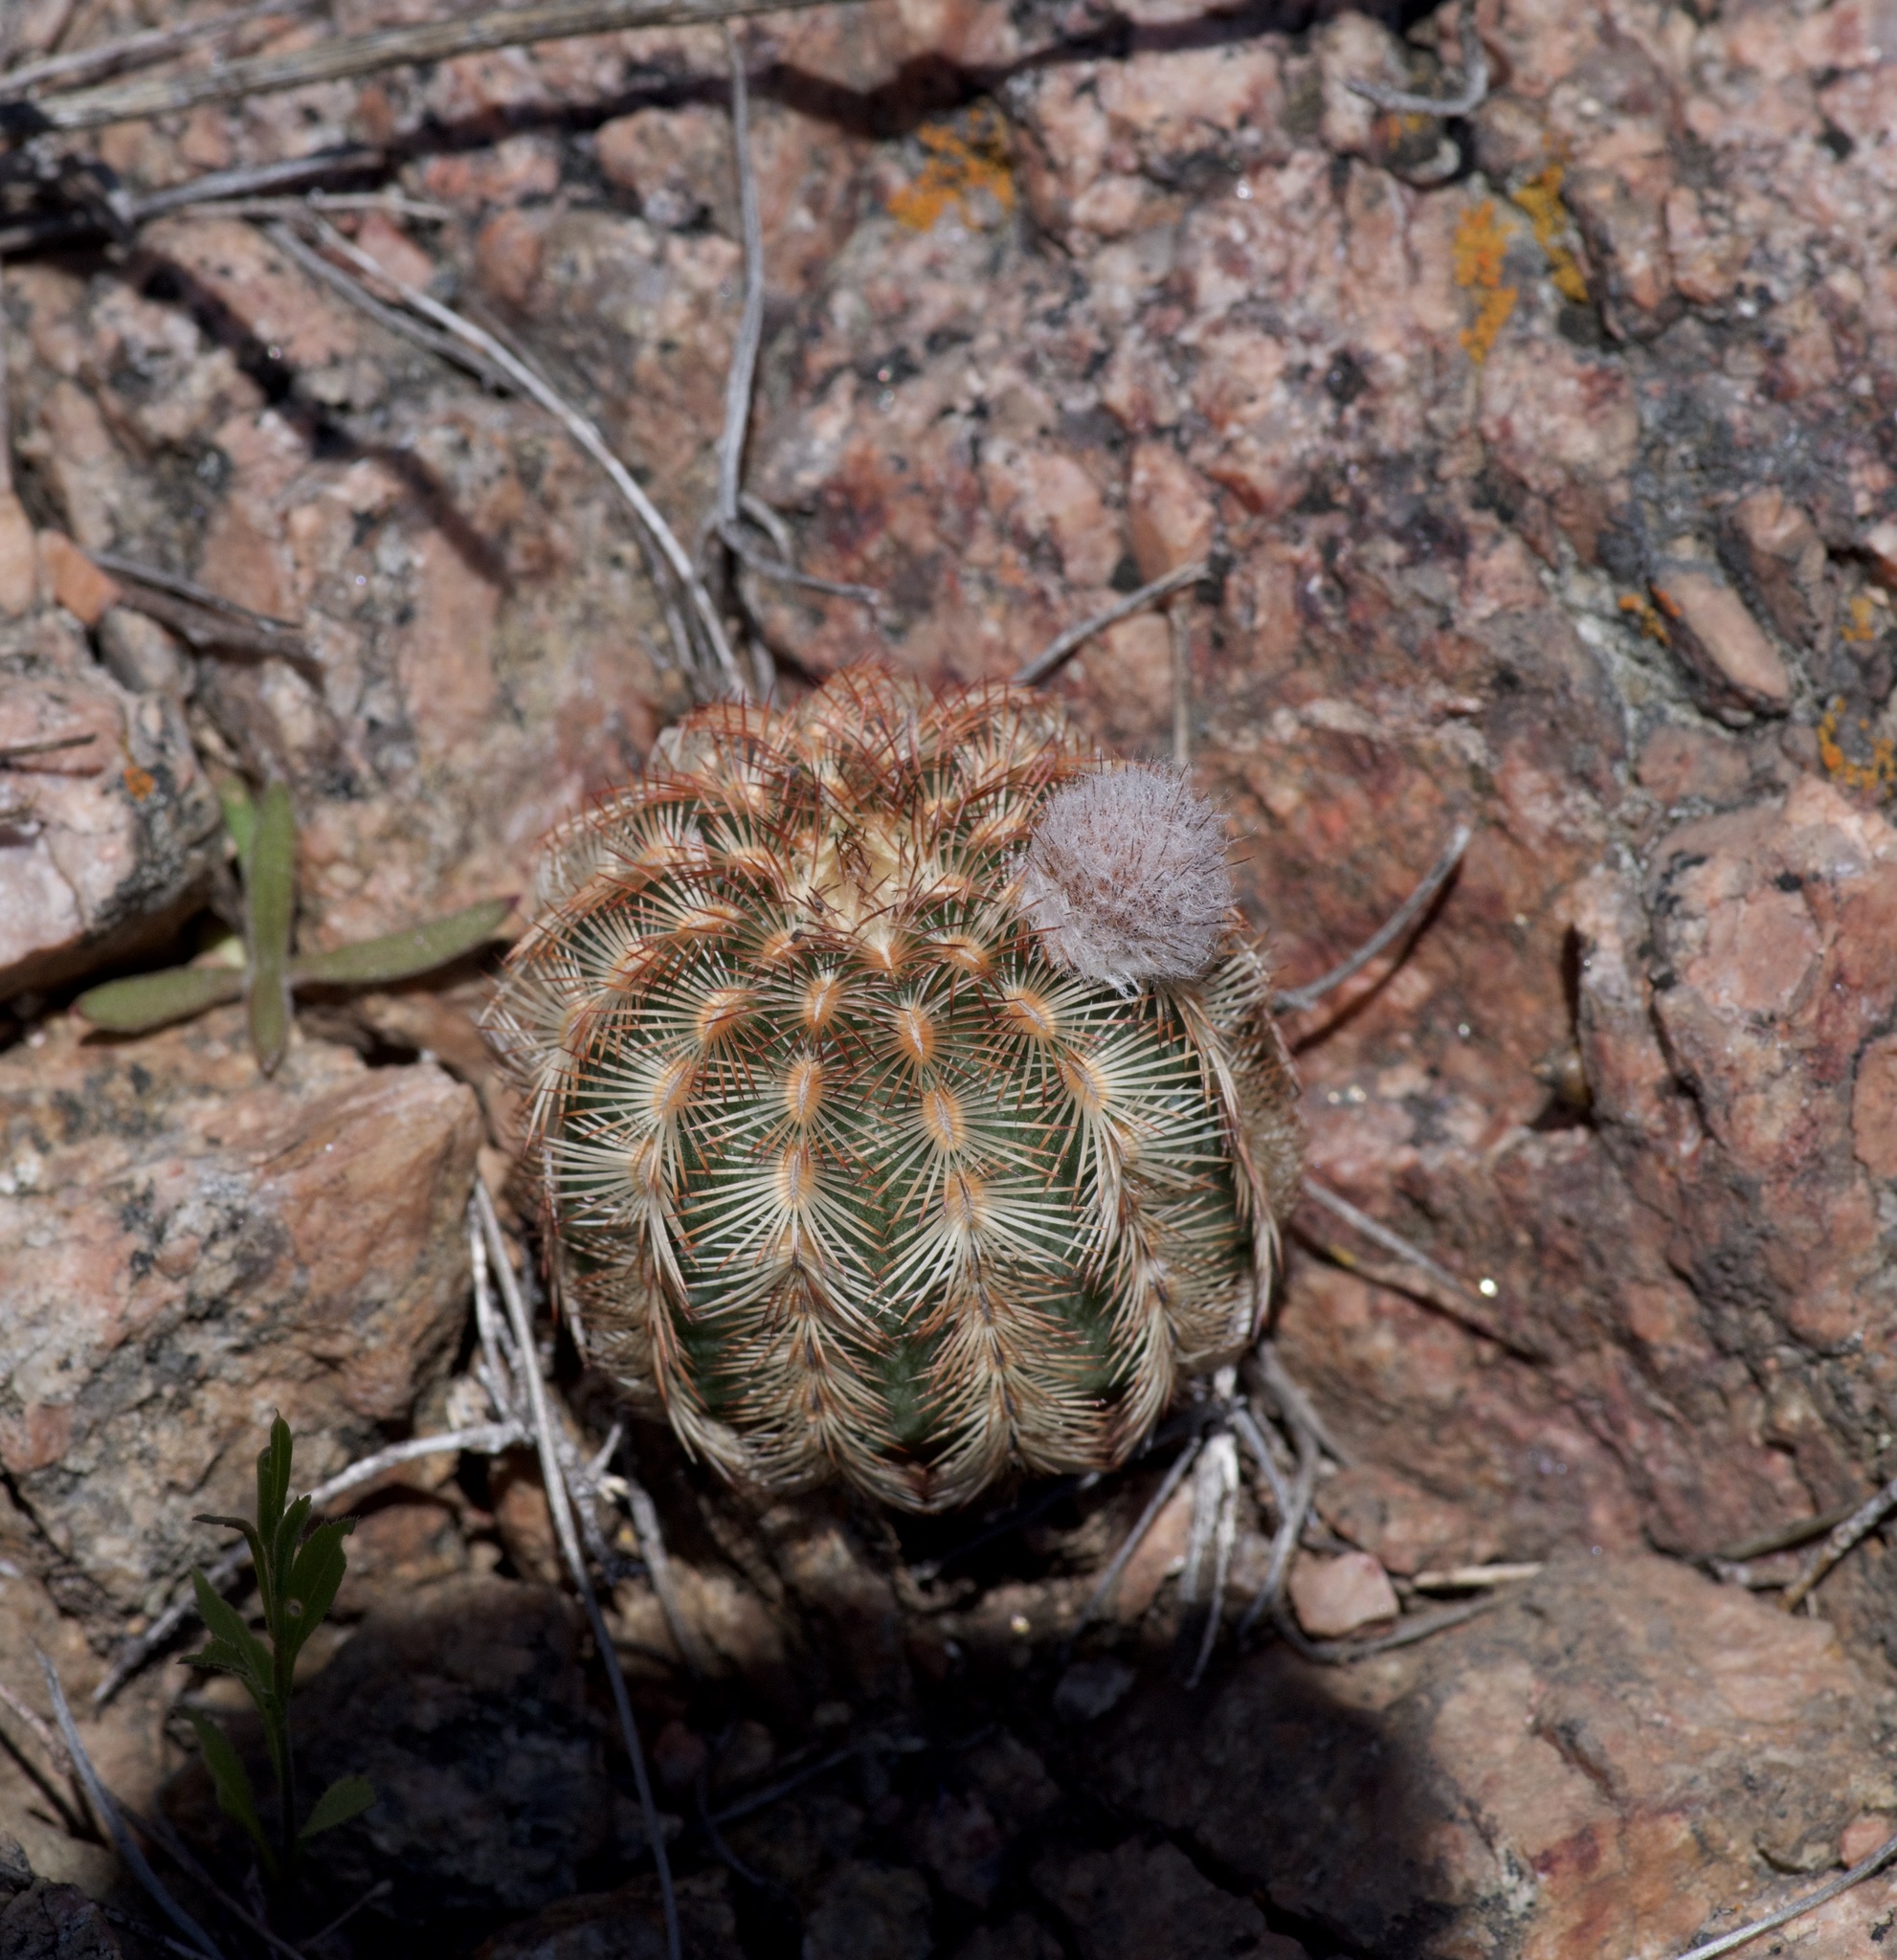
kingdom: Plantae
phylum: Tracheophyta
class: Magnoliopsida
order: Caryophyllales
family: Cactaceae
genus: Echinocereus
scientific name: Echinocereus reichenbachii
